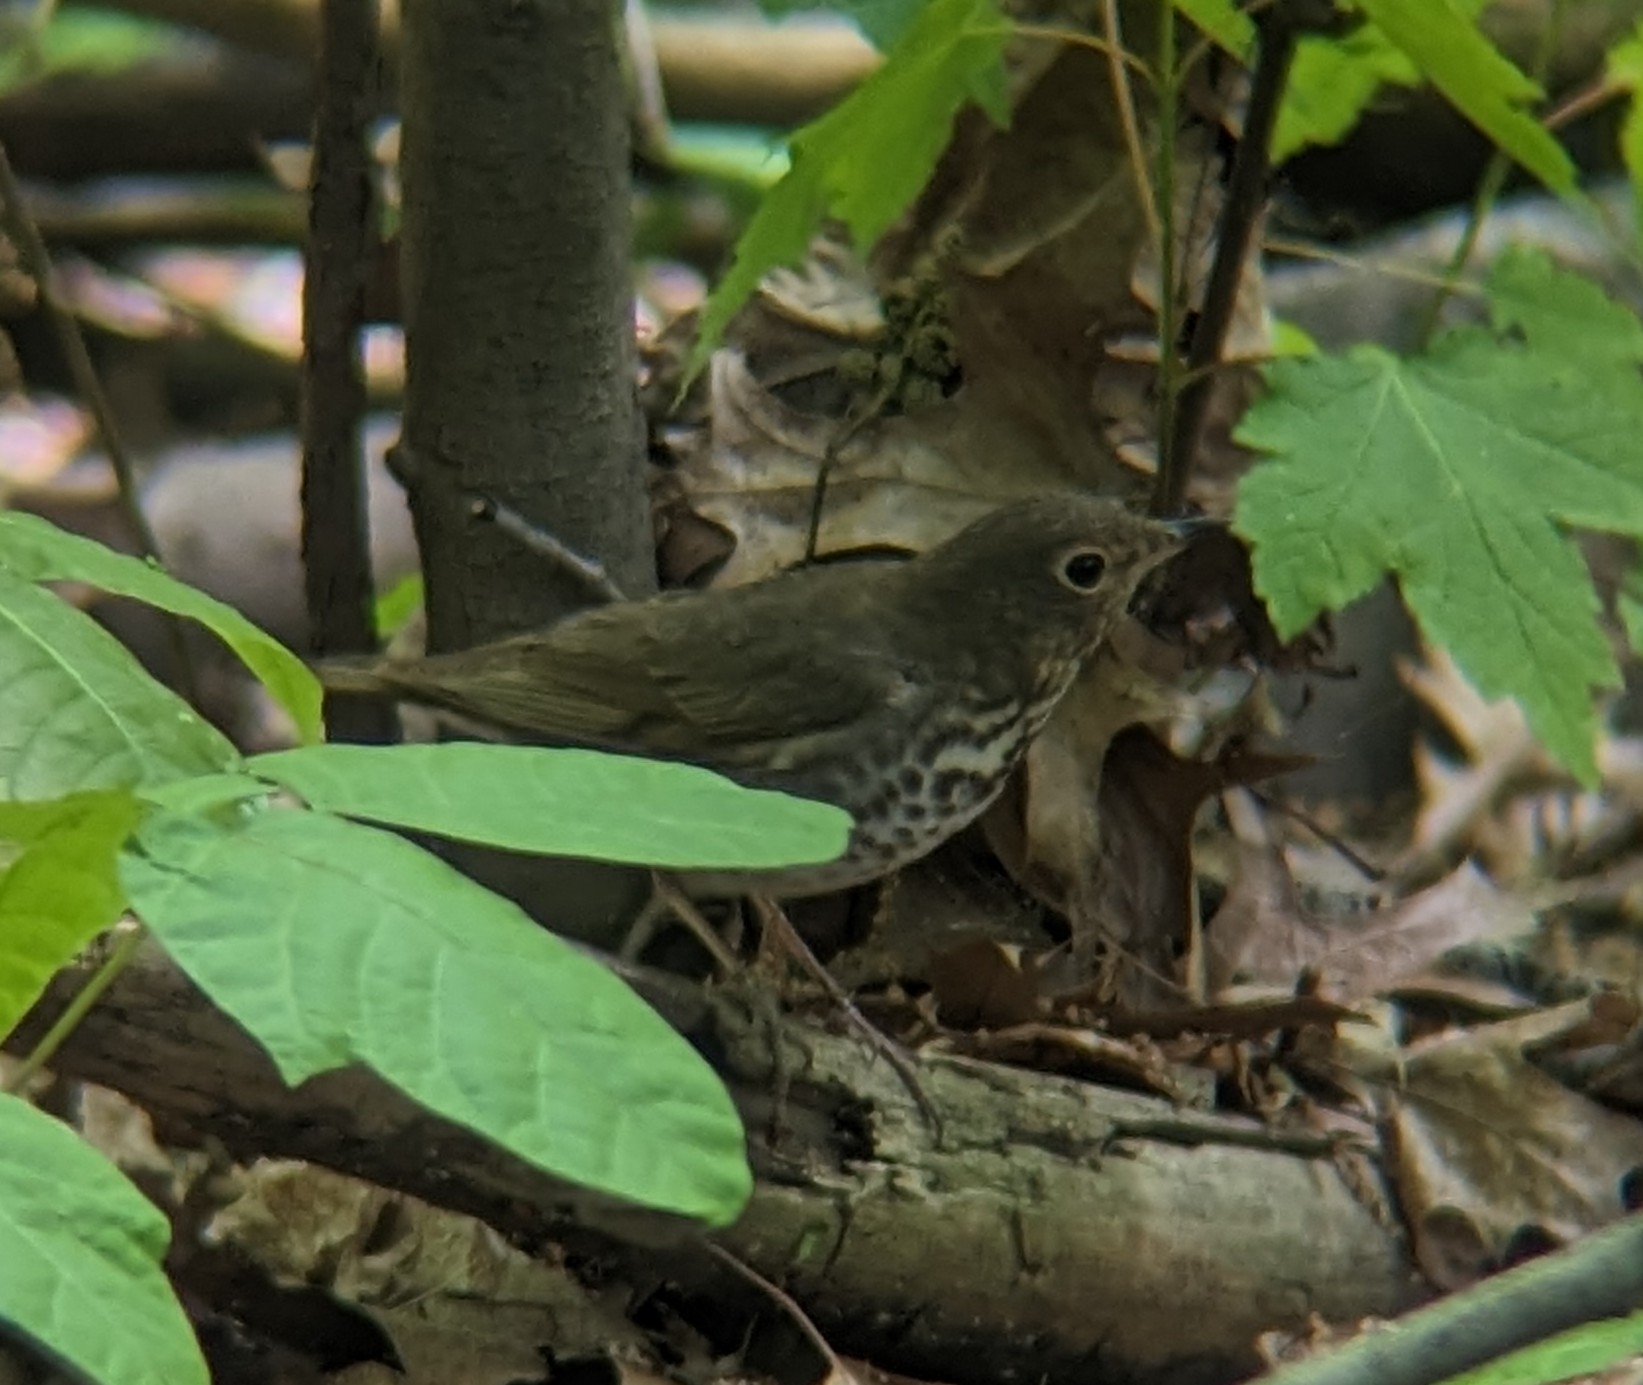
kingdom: Animalia
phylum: Chordata
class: Aves
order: Passeriformes
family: Turdidae
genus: Catharus
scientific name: Catharus ustulatus
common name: Swainson's thrush
